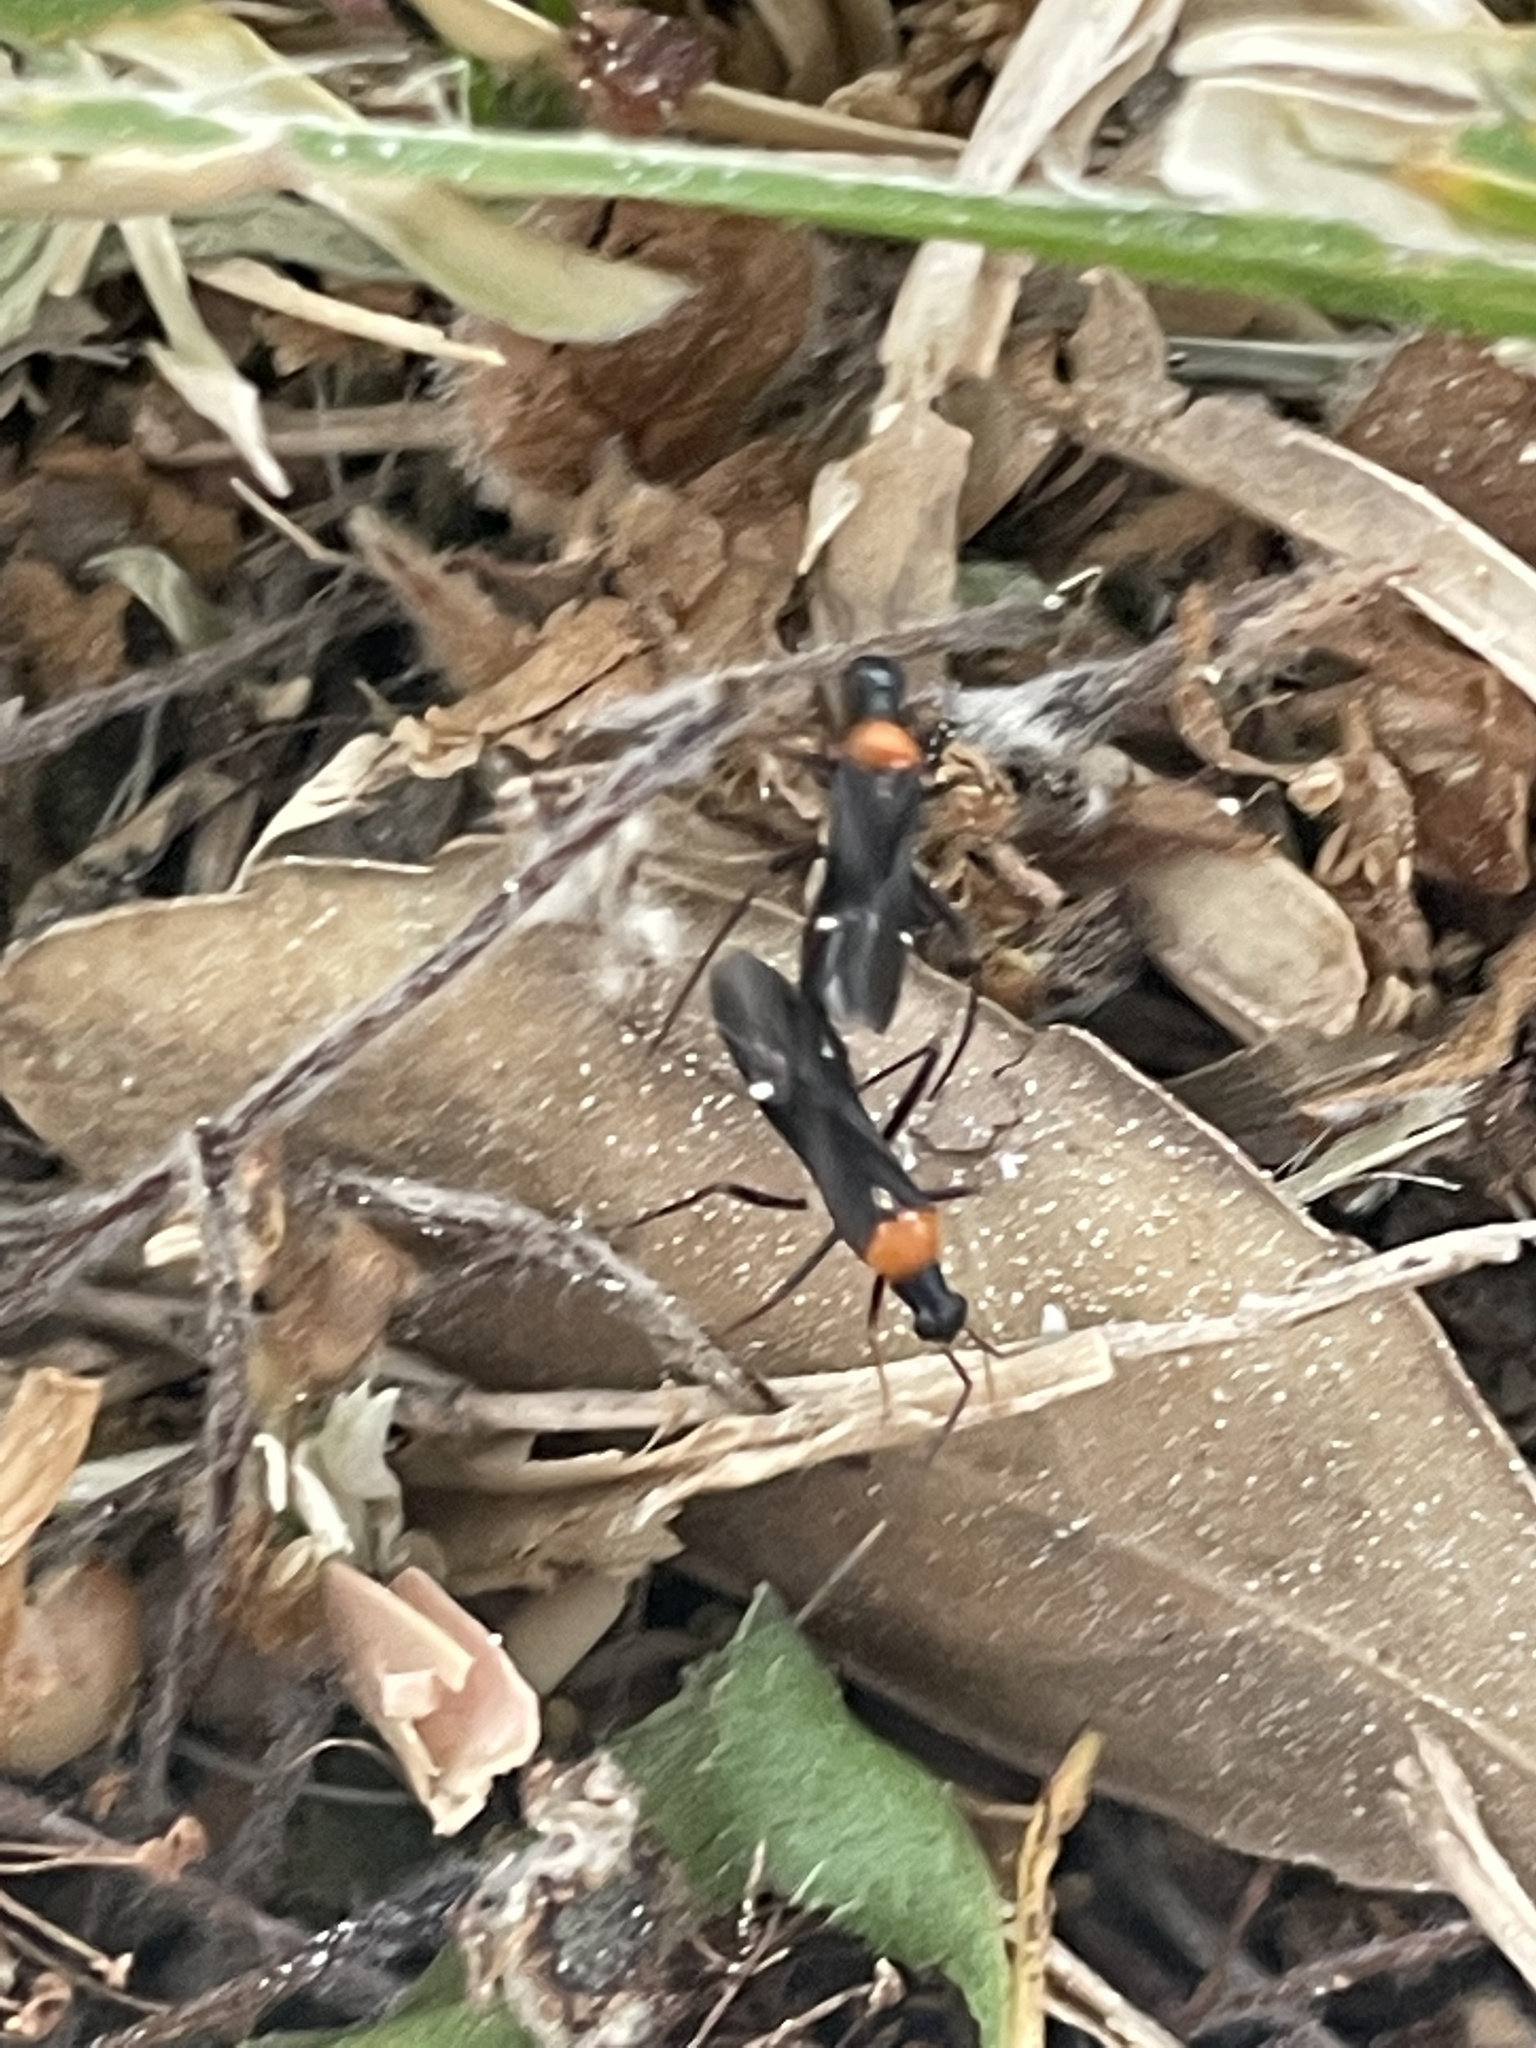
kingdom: Animalia
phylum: Arthropoda
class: Insecta
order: Hemiptera
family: Miridae
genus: Pseudoxenetus
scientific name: Pseudoxenetus regalis
